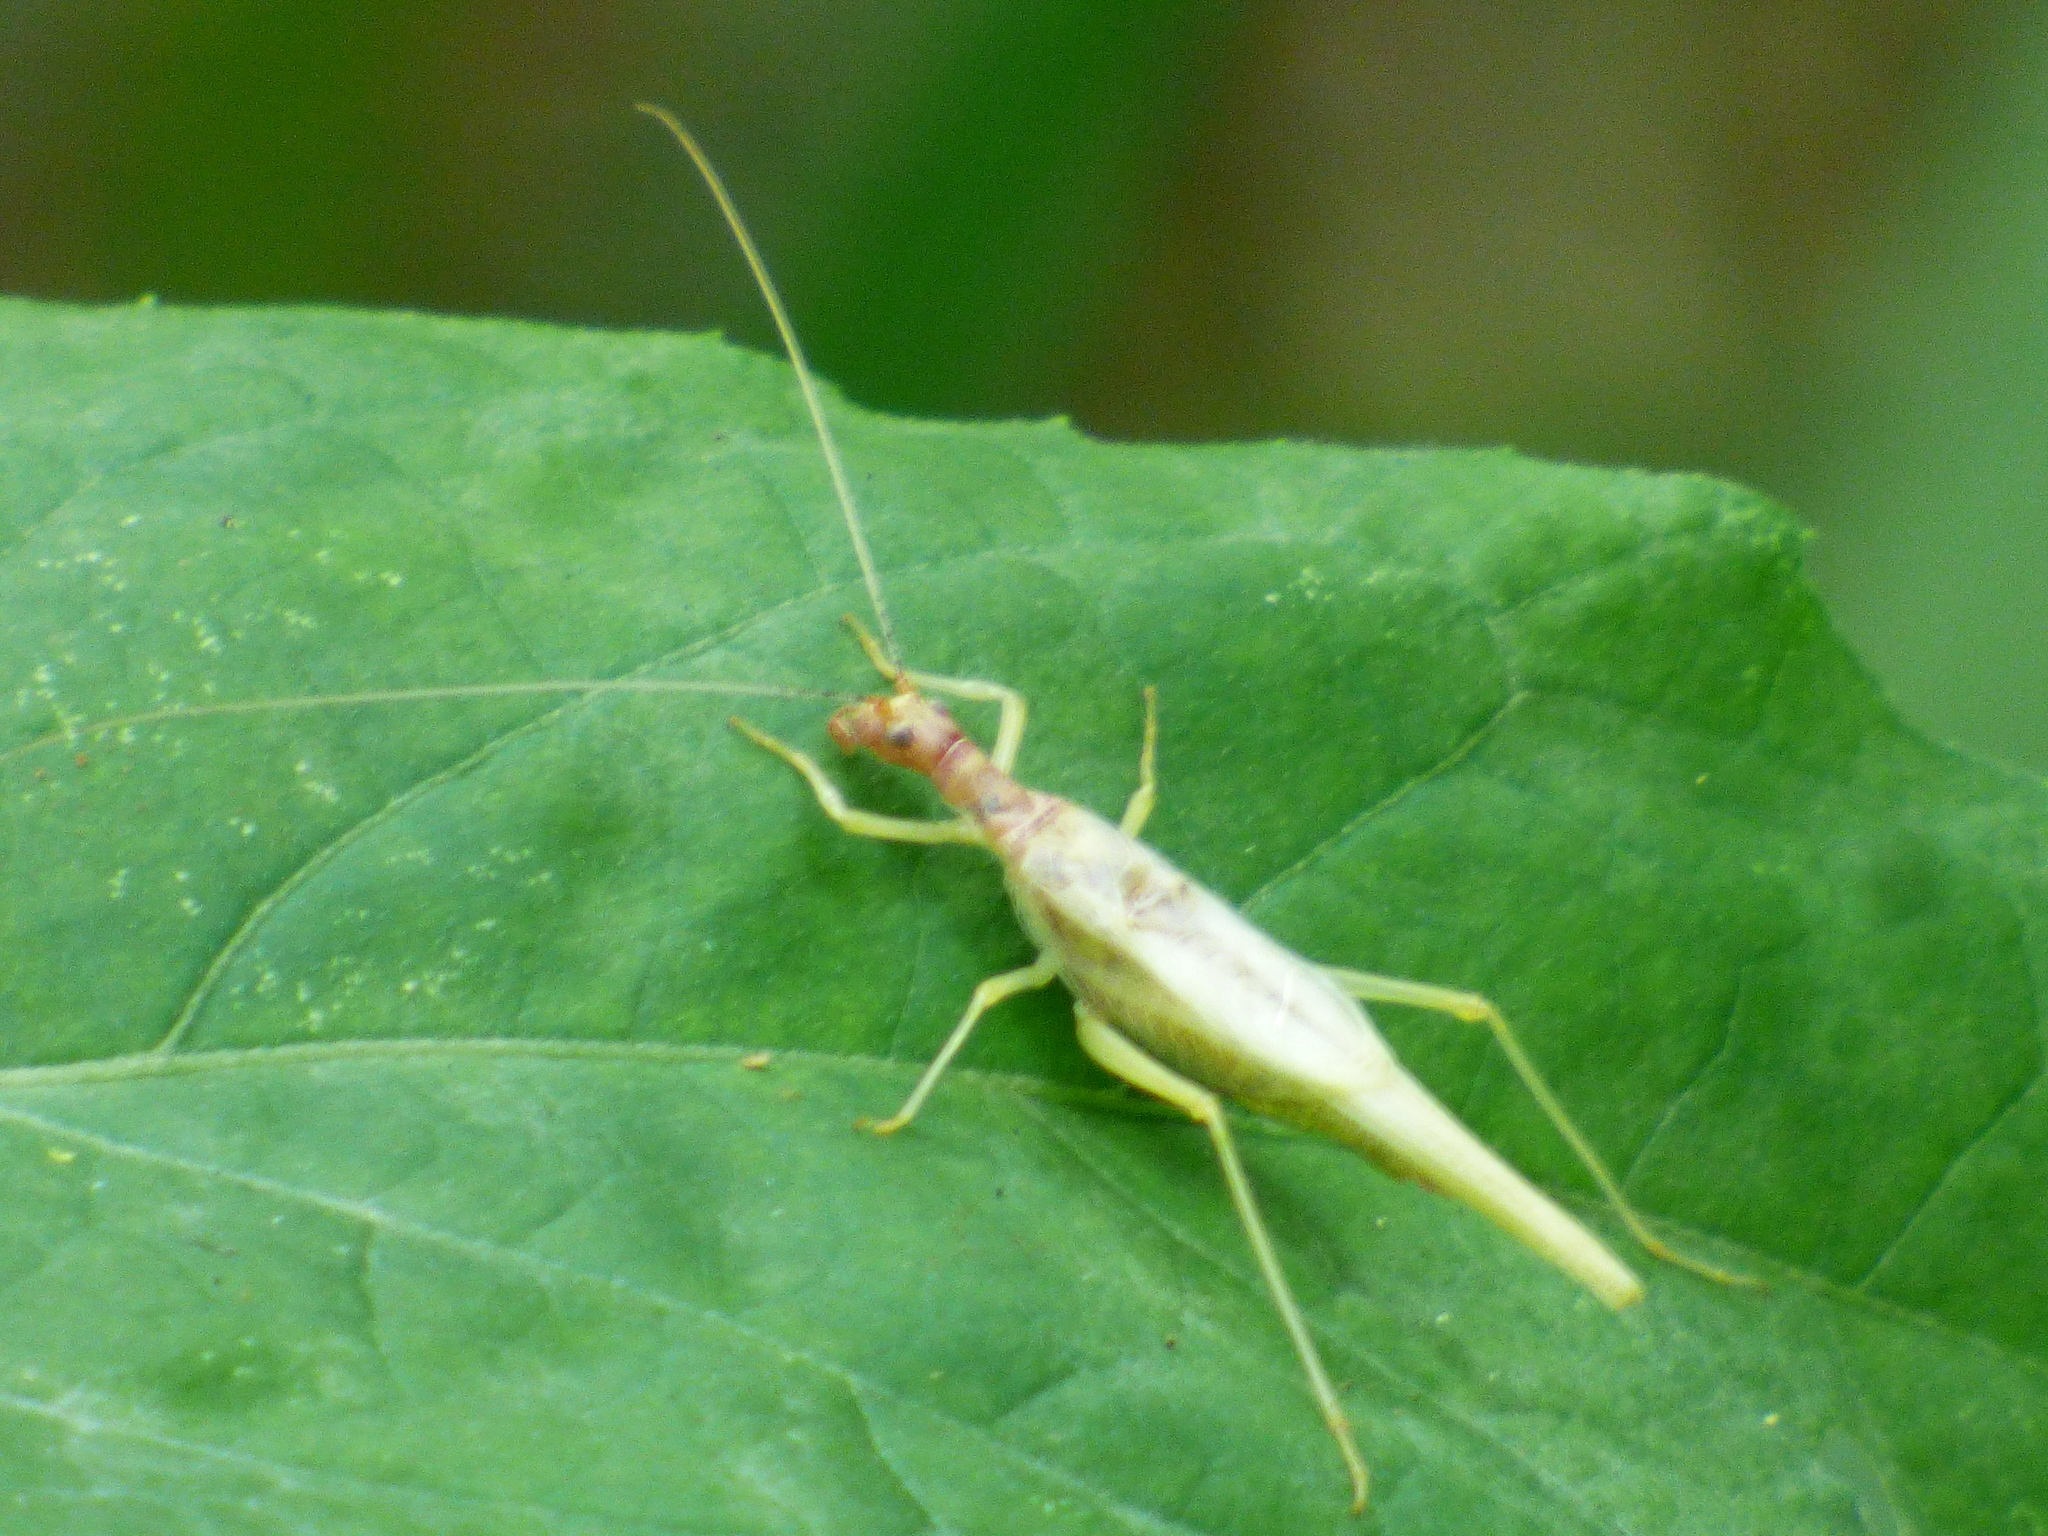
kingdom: Animalia
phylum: Arthropoda
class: Insecta
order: Orthoptera
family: Gryllidae
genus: Neoxabea
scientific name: Neoxabea bipunctata
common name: Two-spotted tree cricket
